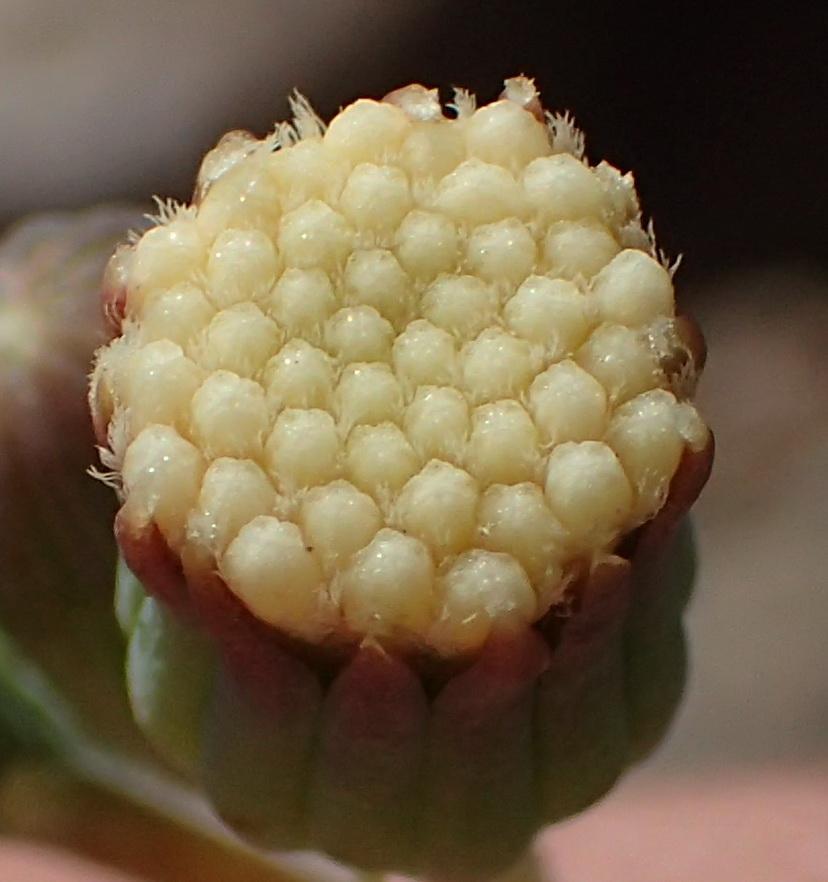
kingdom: Plantae
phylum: Tracheophyta
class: Magnoliopsida
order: Asterales
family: Asteraceae
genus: Curio
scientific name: Curio talinoides
